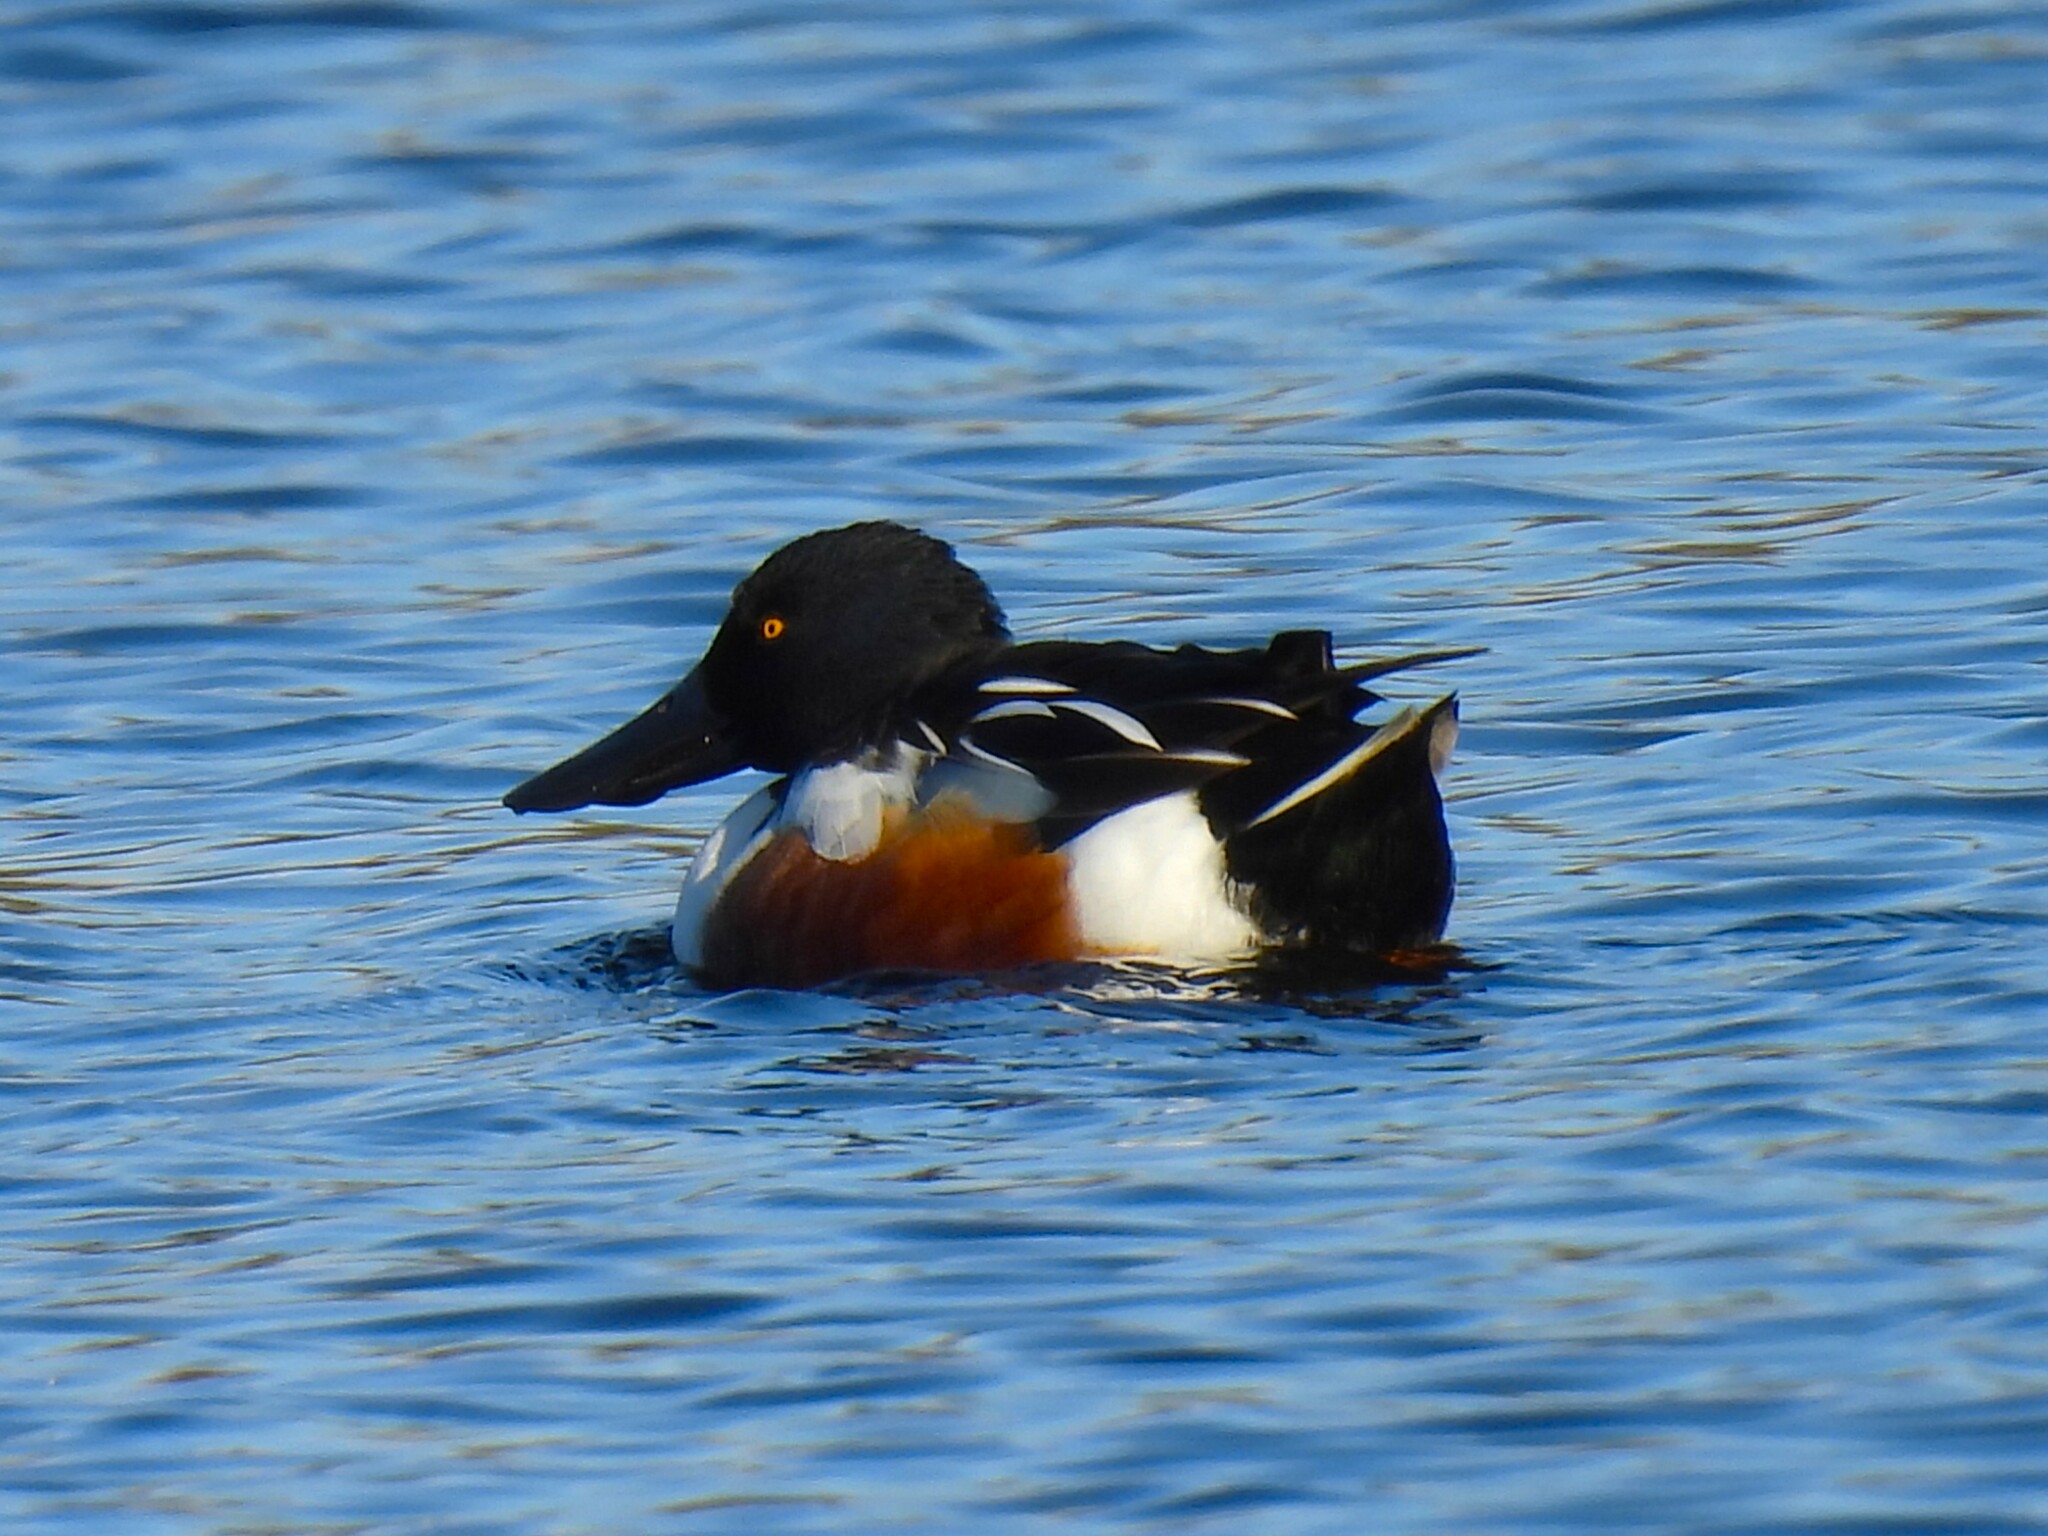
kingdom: Animalia
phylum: Chordata
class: Aves
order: Anseriformes
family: Anatidae
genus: Spatula
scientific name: Spatula clypeata
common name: Northern shoveler
